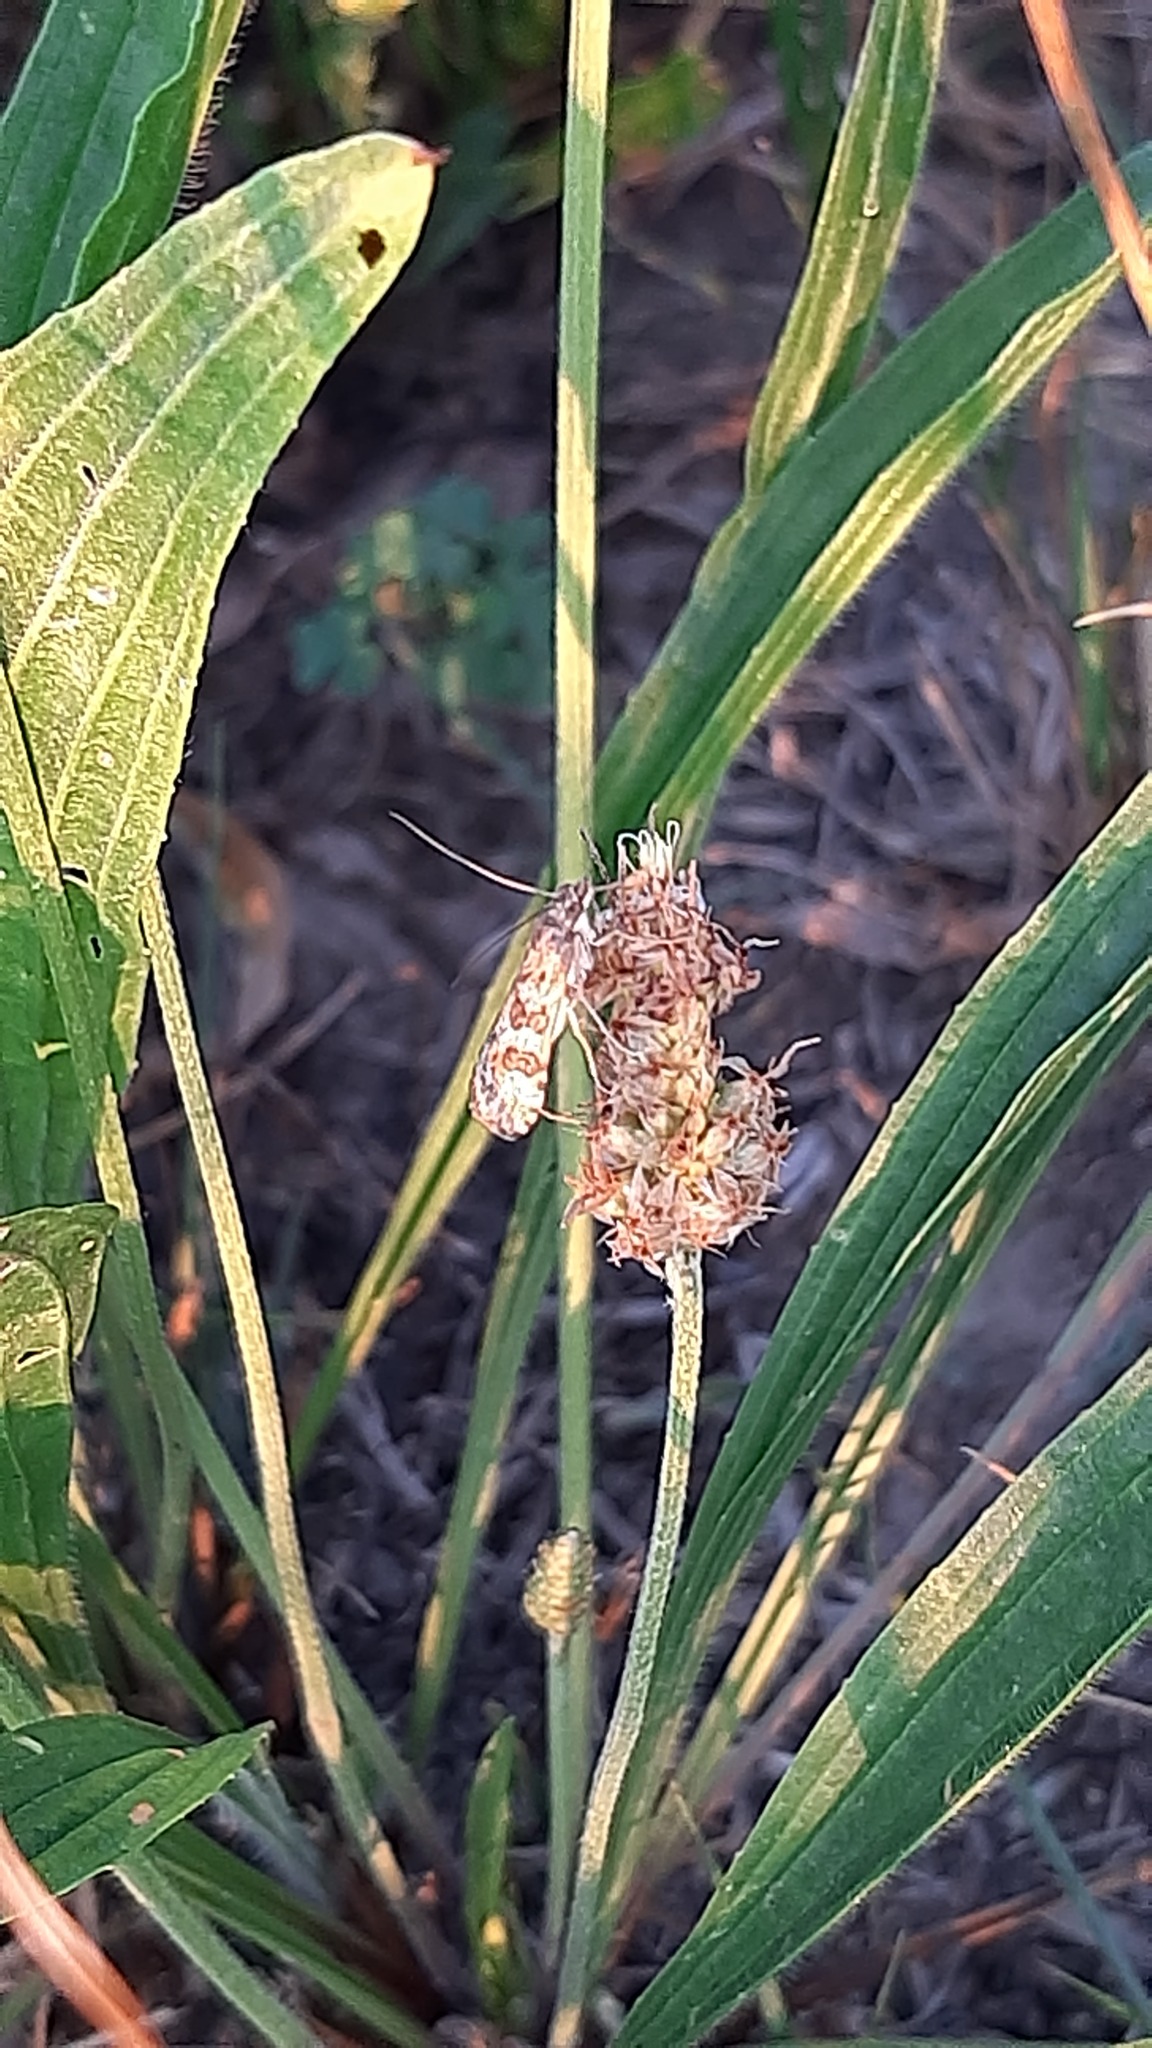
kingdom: Animalia
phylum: Arthropoda
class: Insecta
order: Lepidoptera
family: Crambidae
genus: Nomophila
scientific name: Nomophila noctuella
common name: Rush veneer
